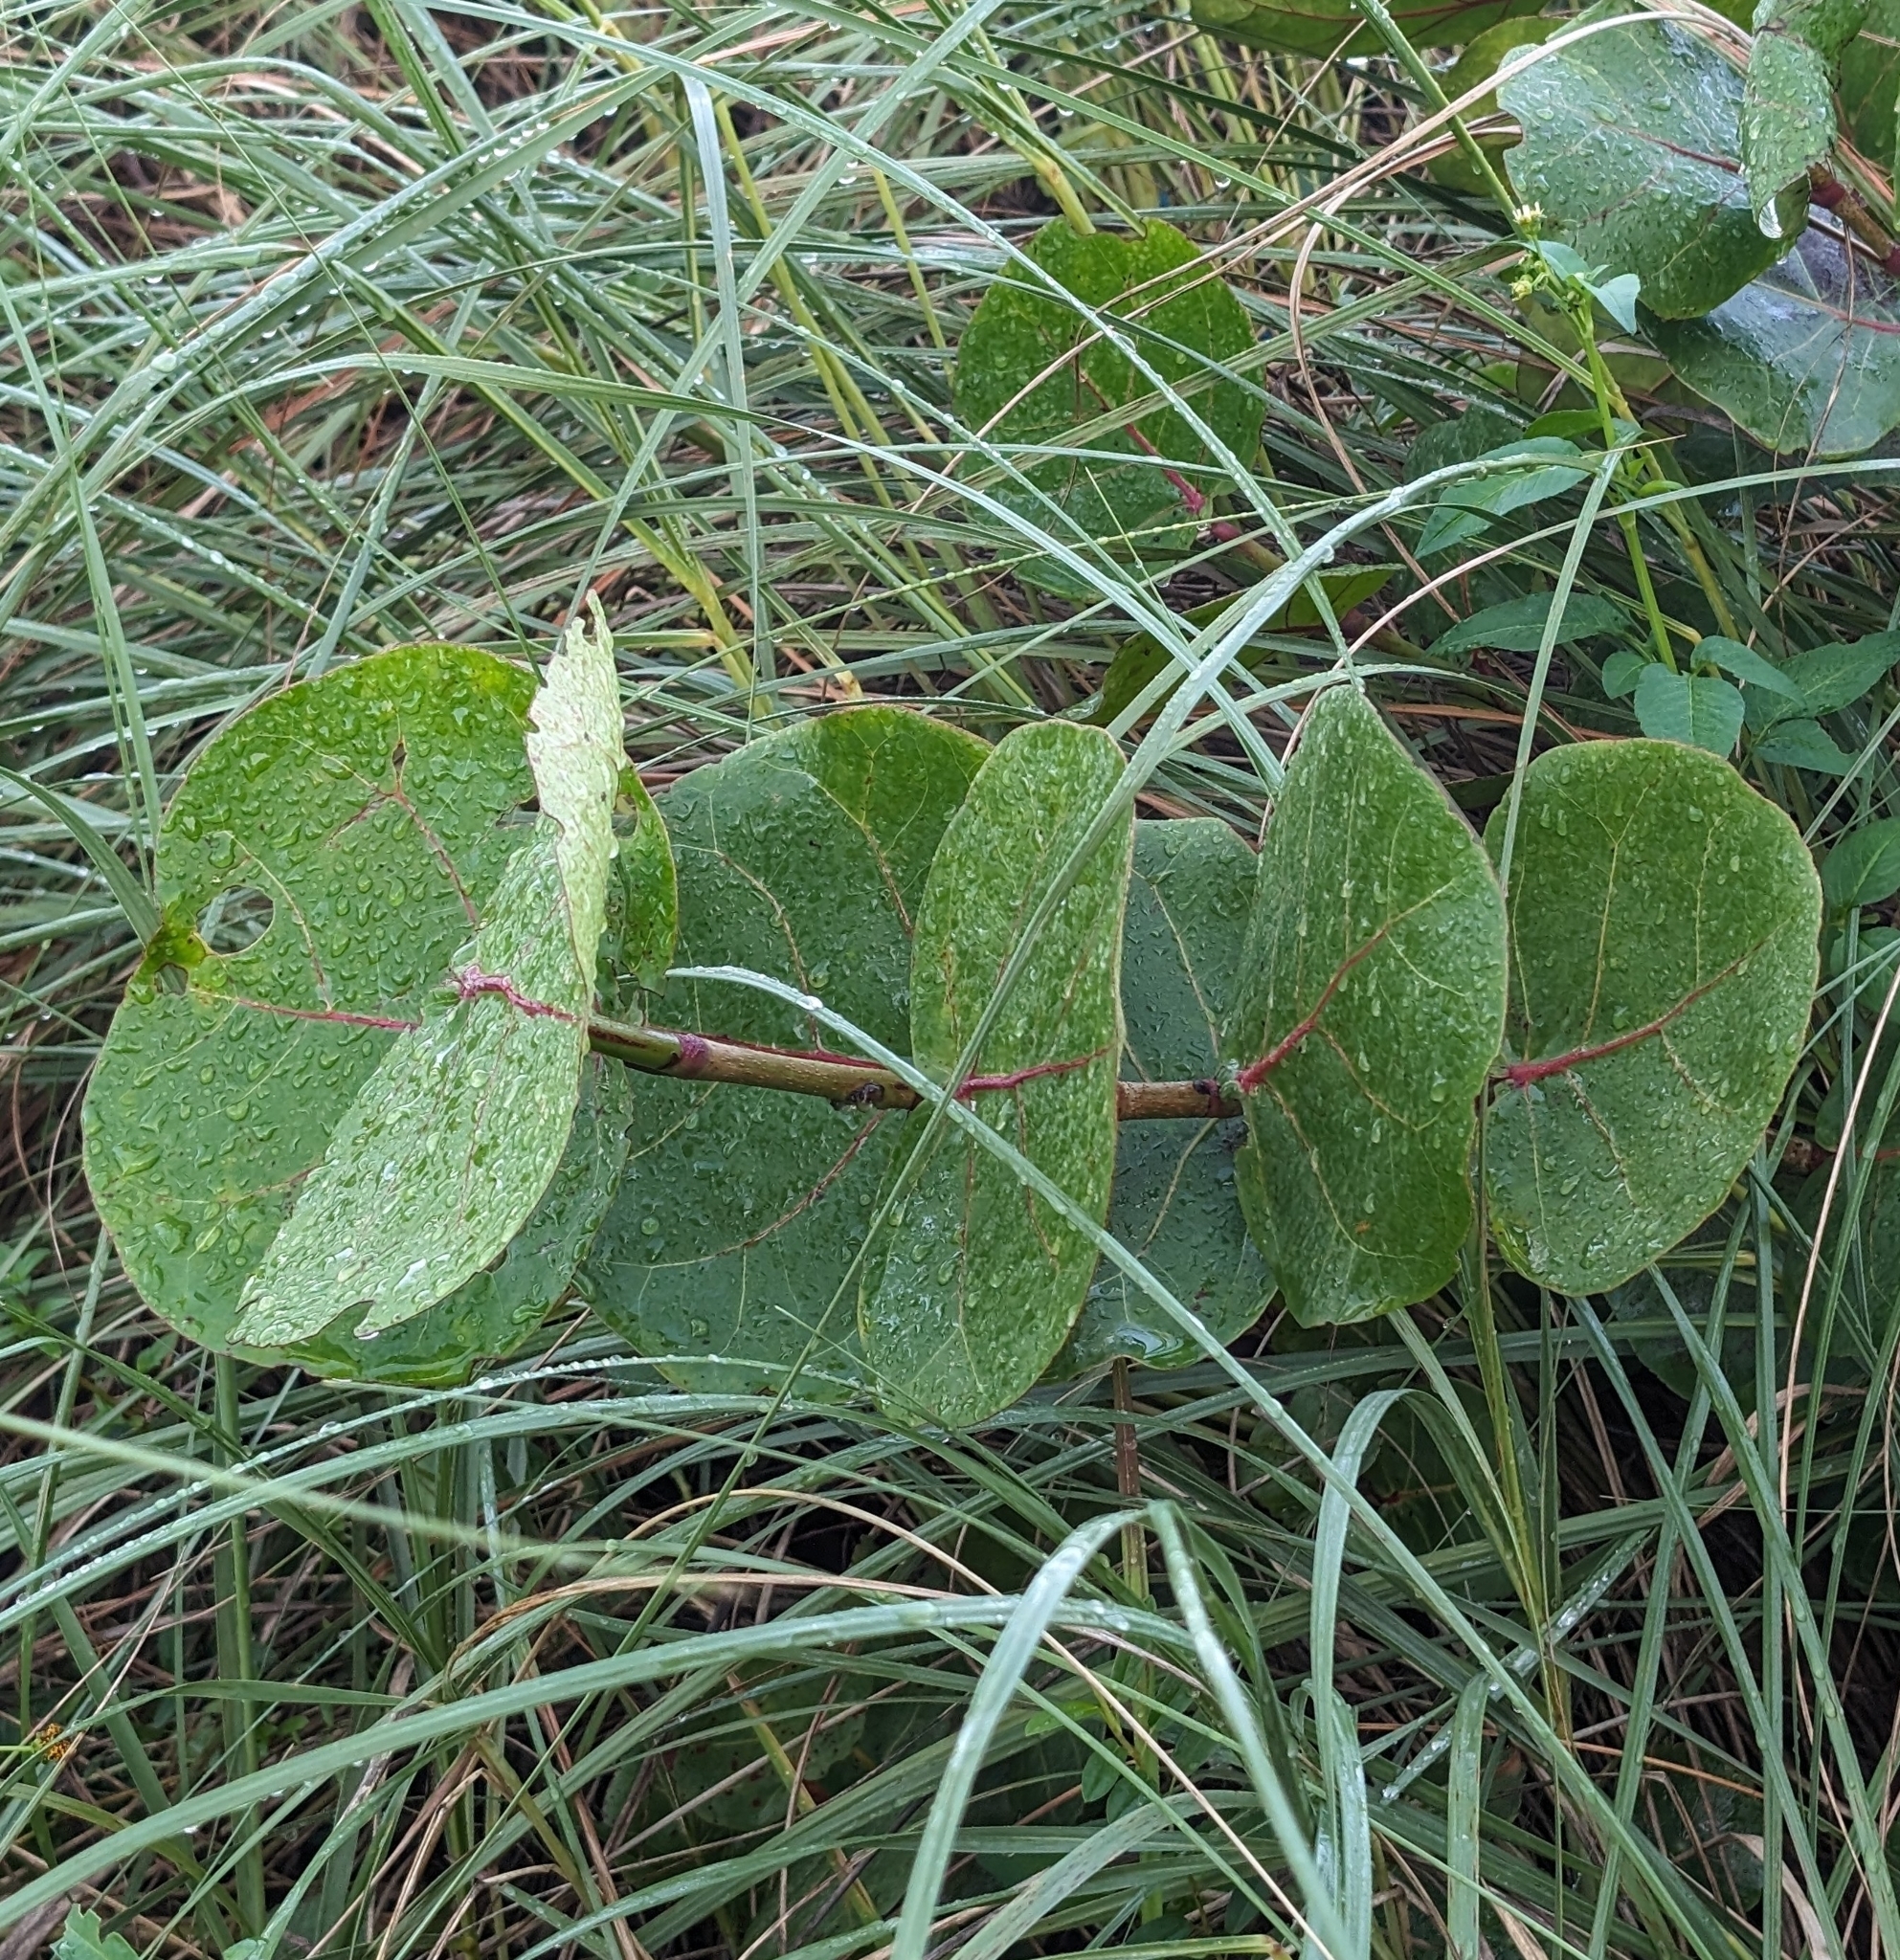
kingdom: Plantae
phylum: Tracheophyta
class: Magnoliopsida
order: Caryophyllales
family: Polygonaceae
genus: Coccoloba
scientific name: Coccoloba uvifera
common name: Seagrape
